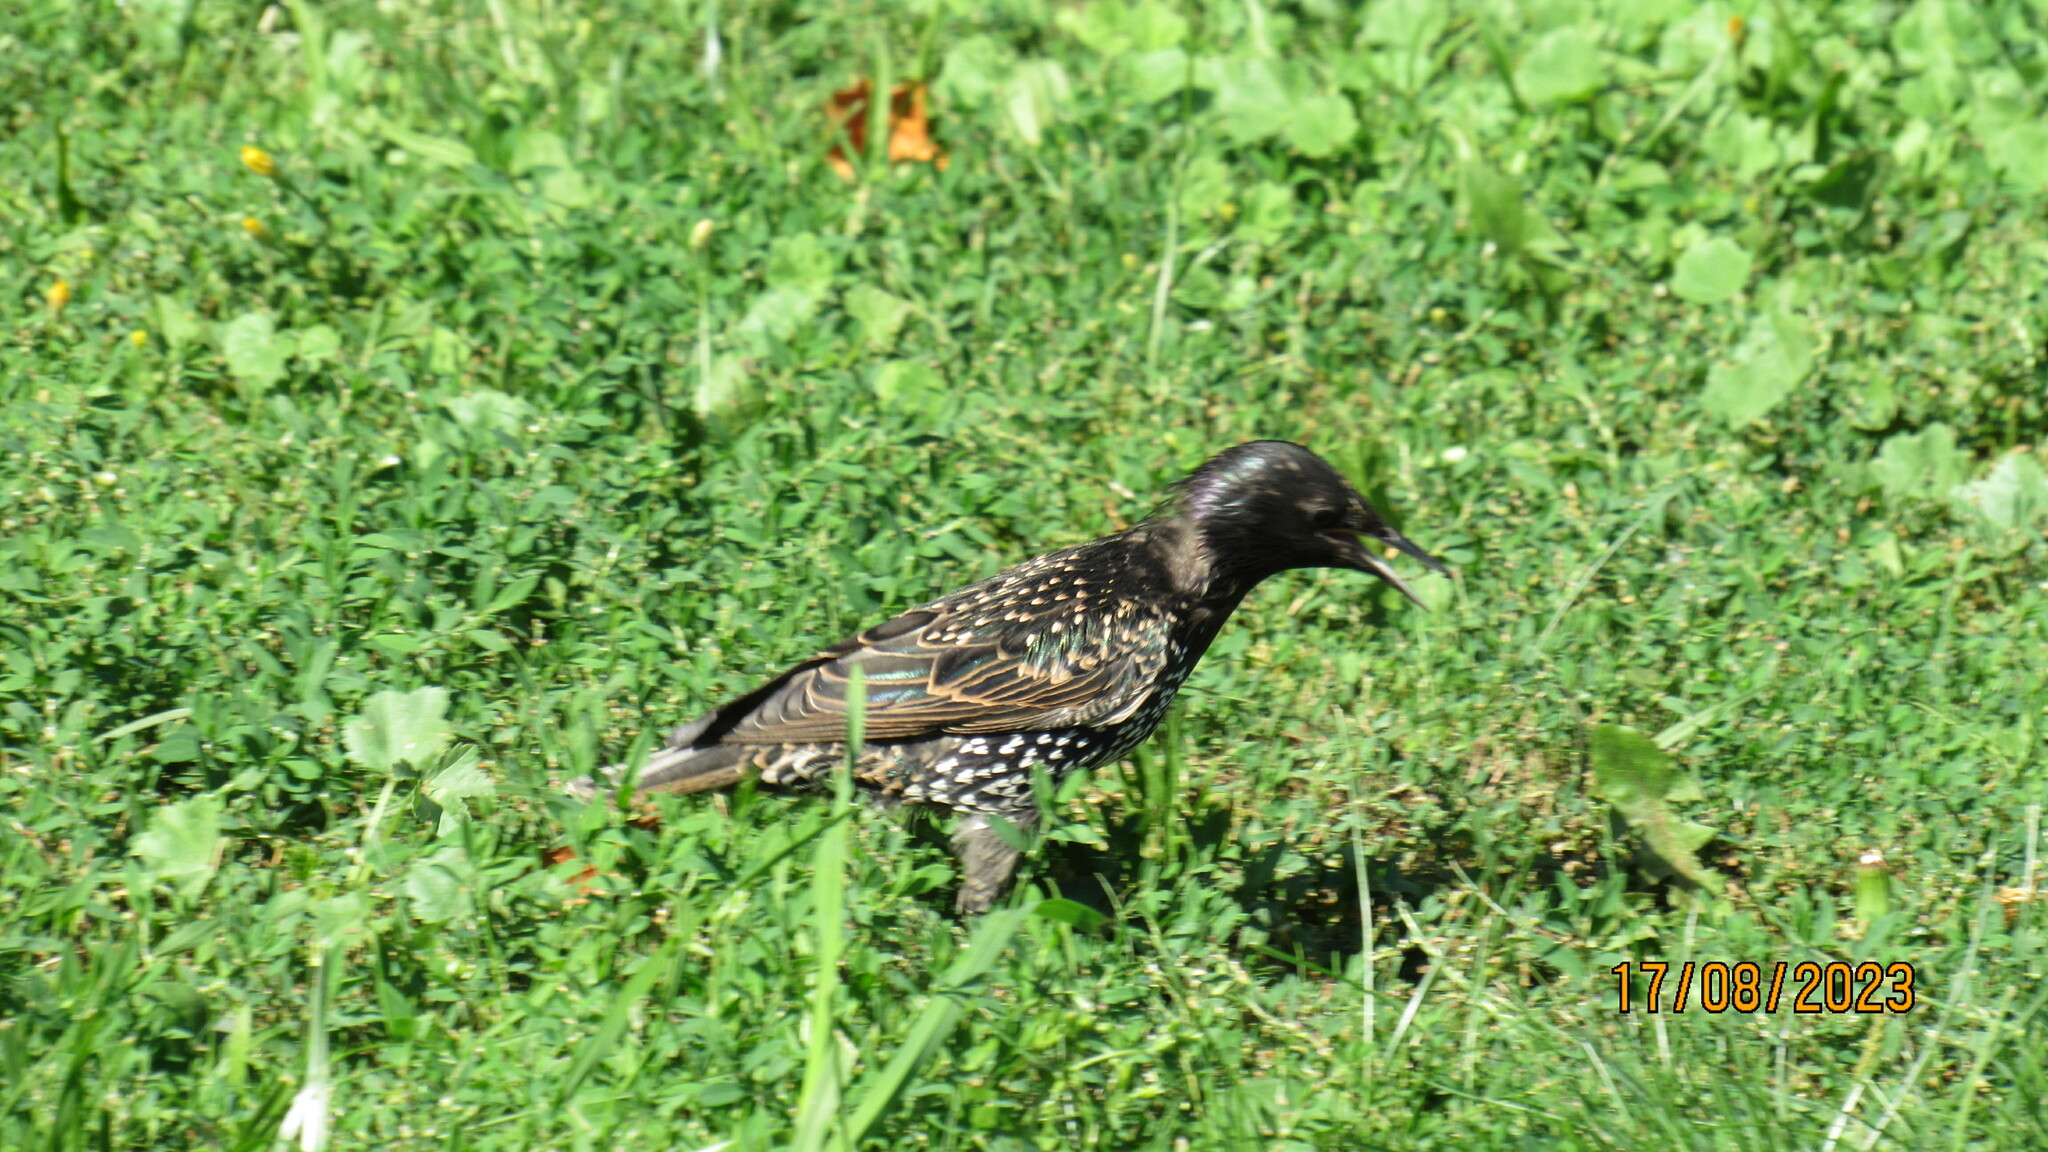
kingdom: Animalia
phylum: Chordata
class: Aves
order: Passeriformes
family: Sturnidae
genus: Sturnus
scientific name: Sturnus vulgaris
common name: Common starling
